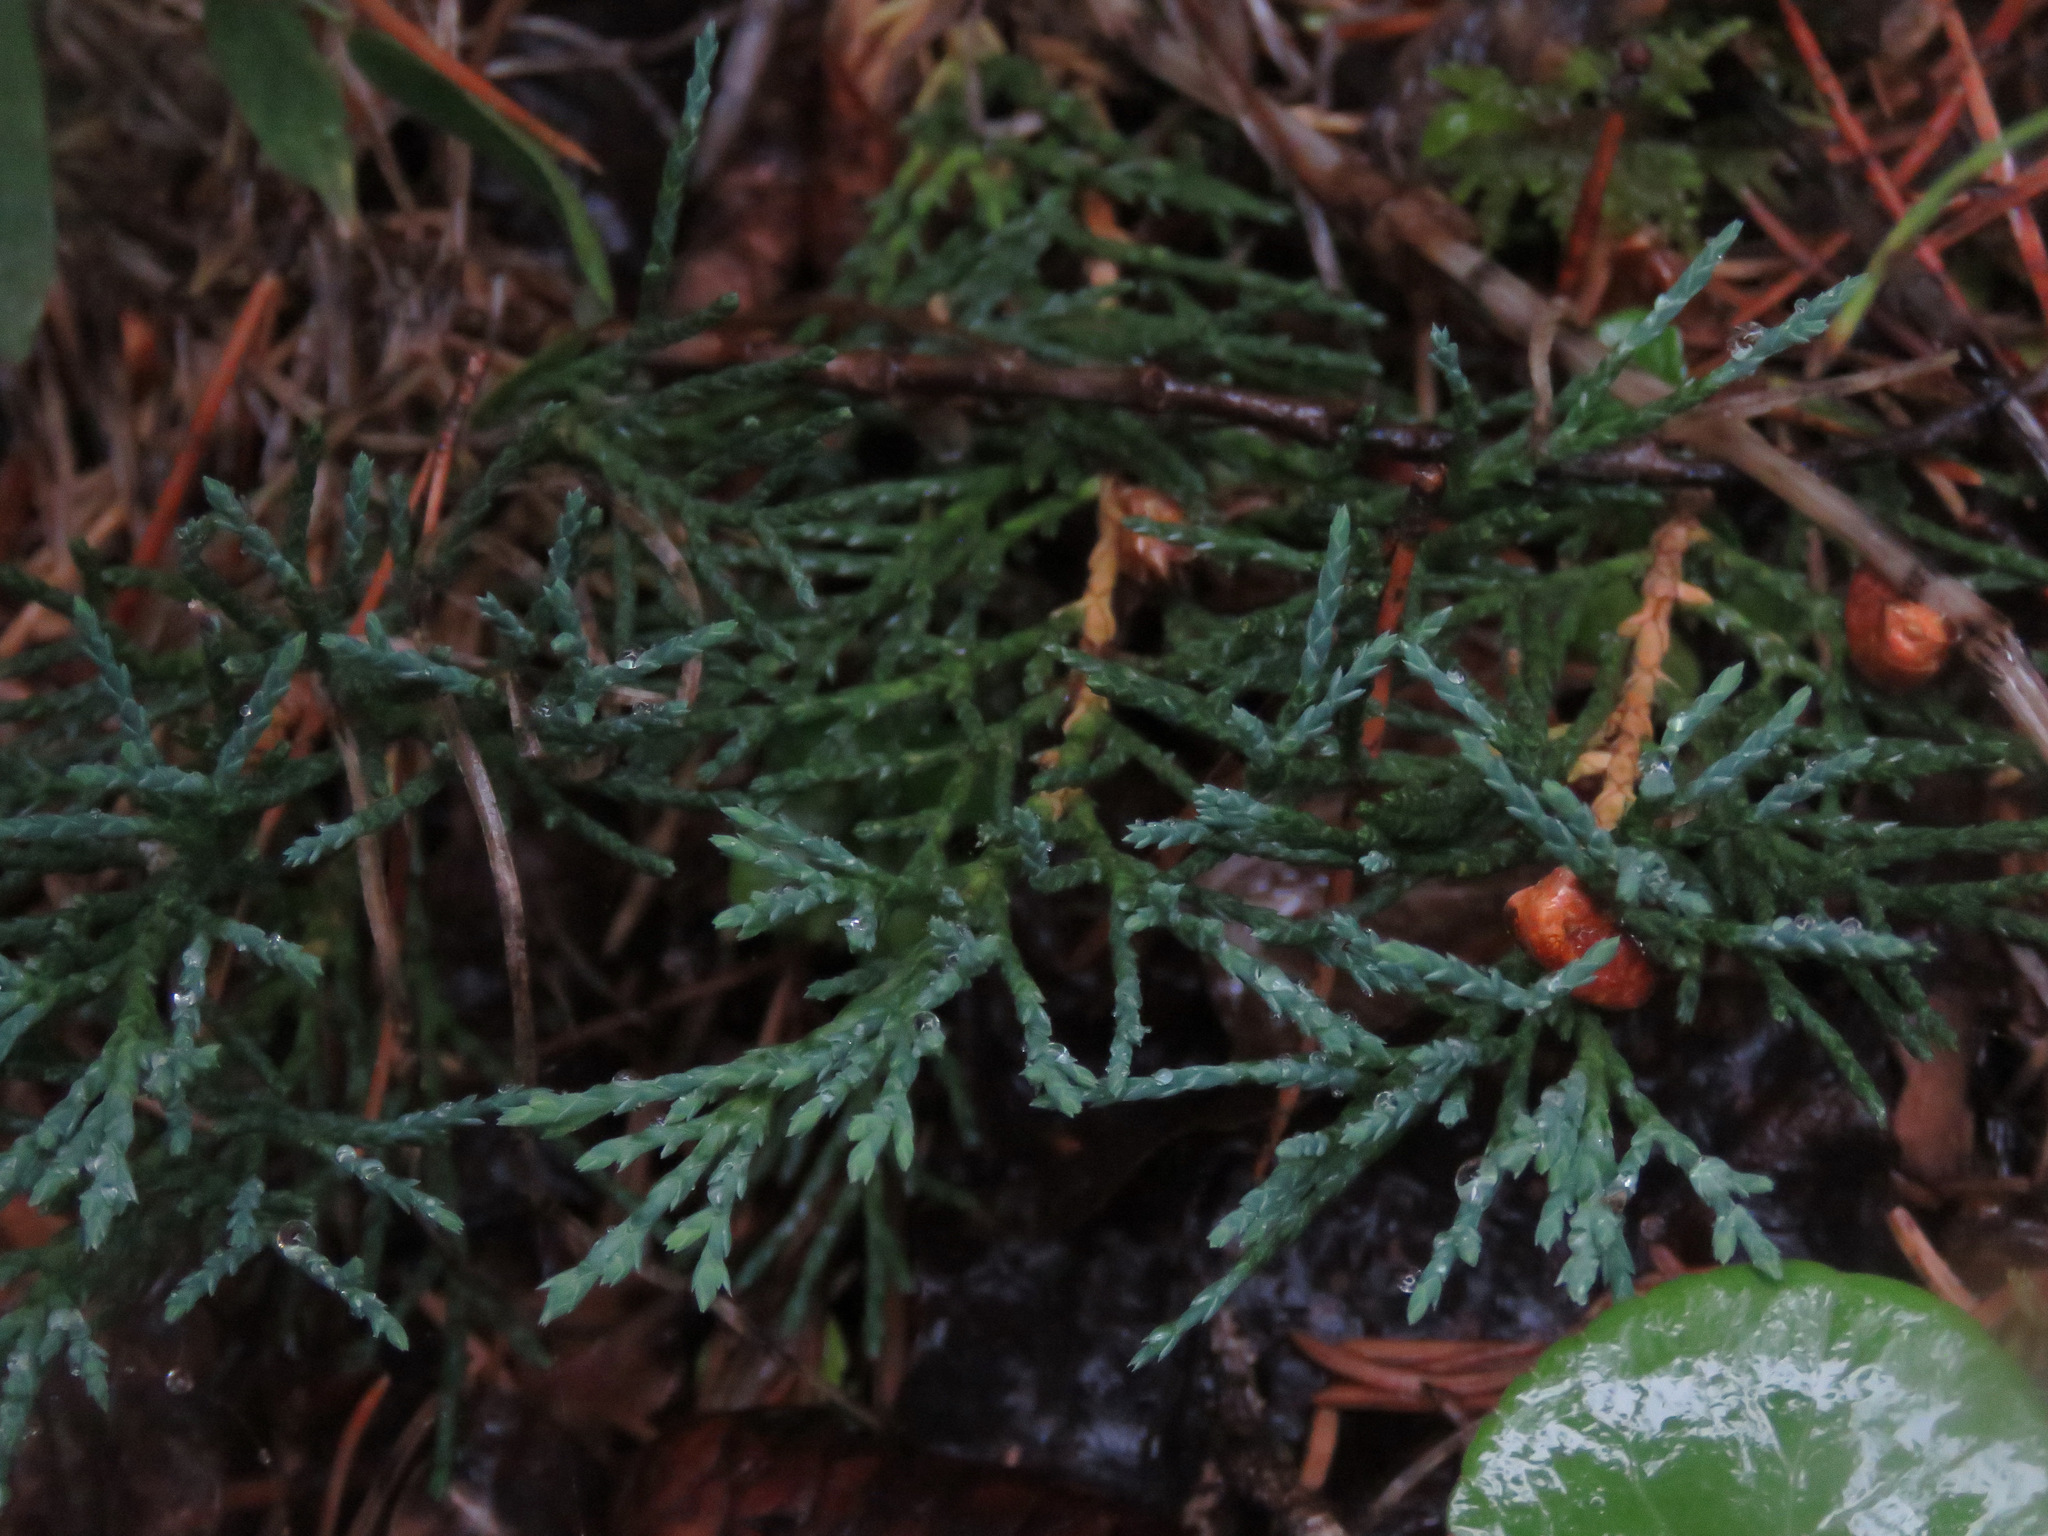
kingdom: Plantae
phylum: Tracheophyta
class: Pinopsida
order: Pinales
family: Cupressaceae
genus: Juniperus
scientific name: Juniperus horizontalis
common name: Creeping juniper
